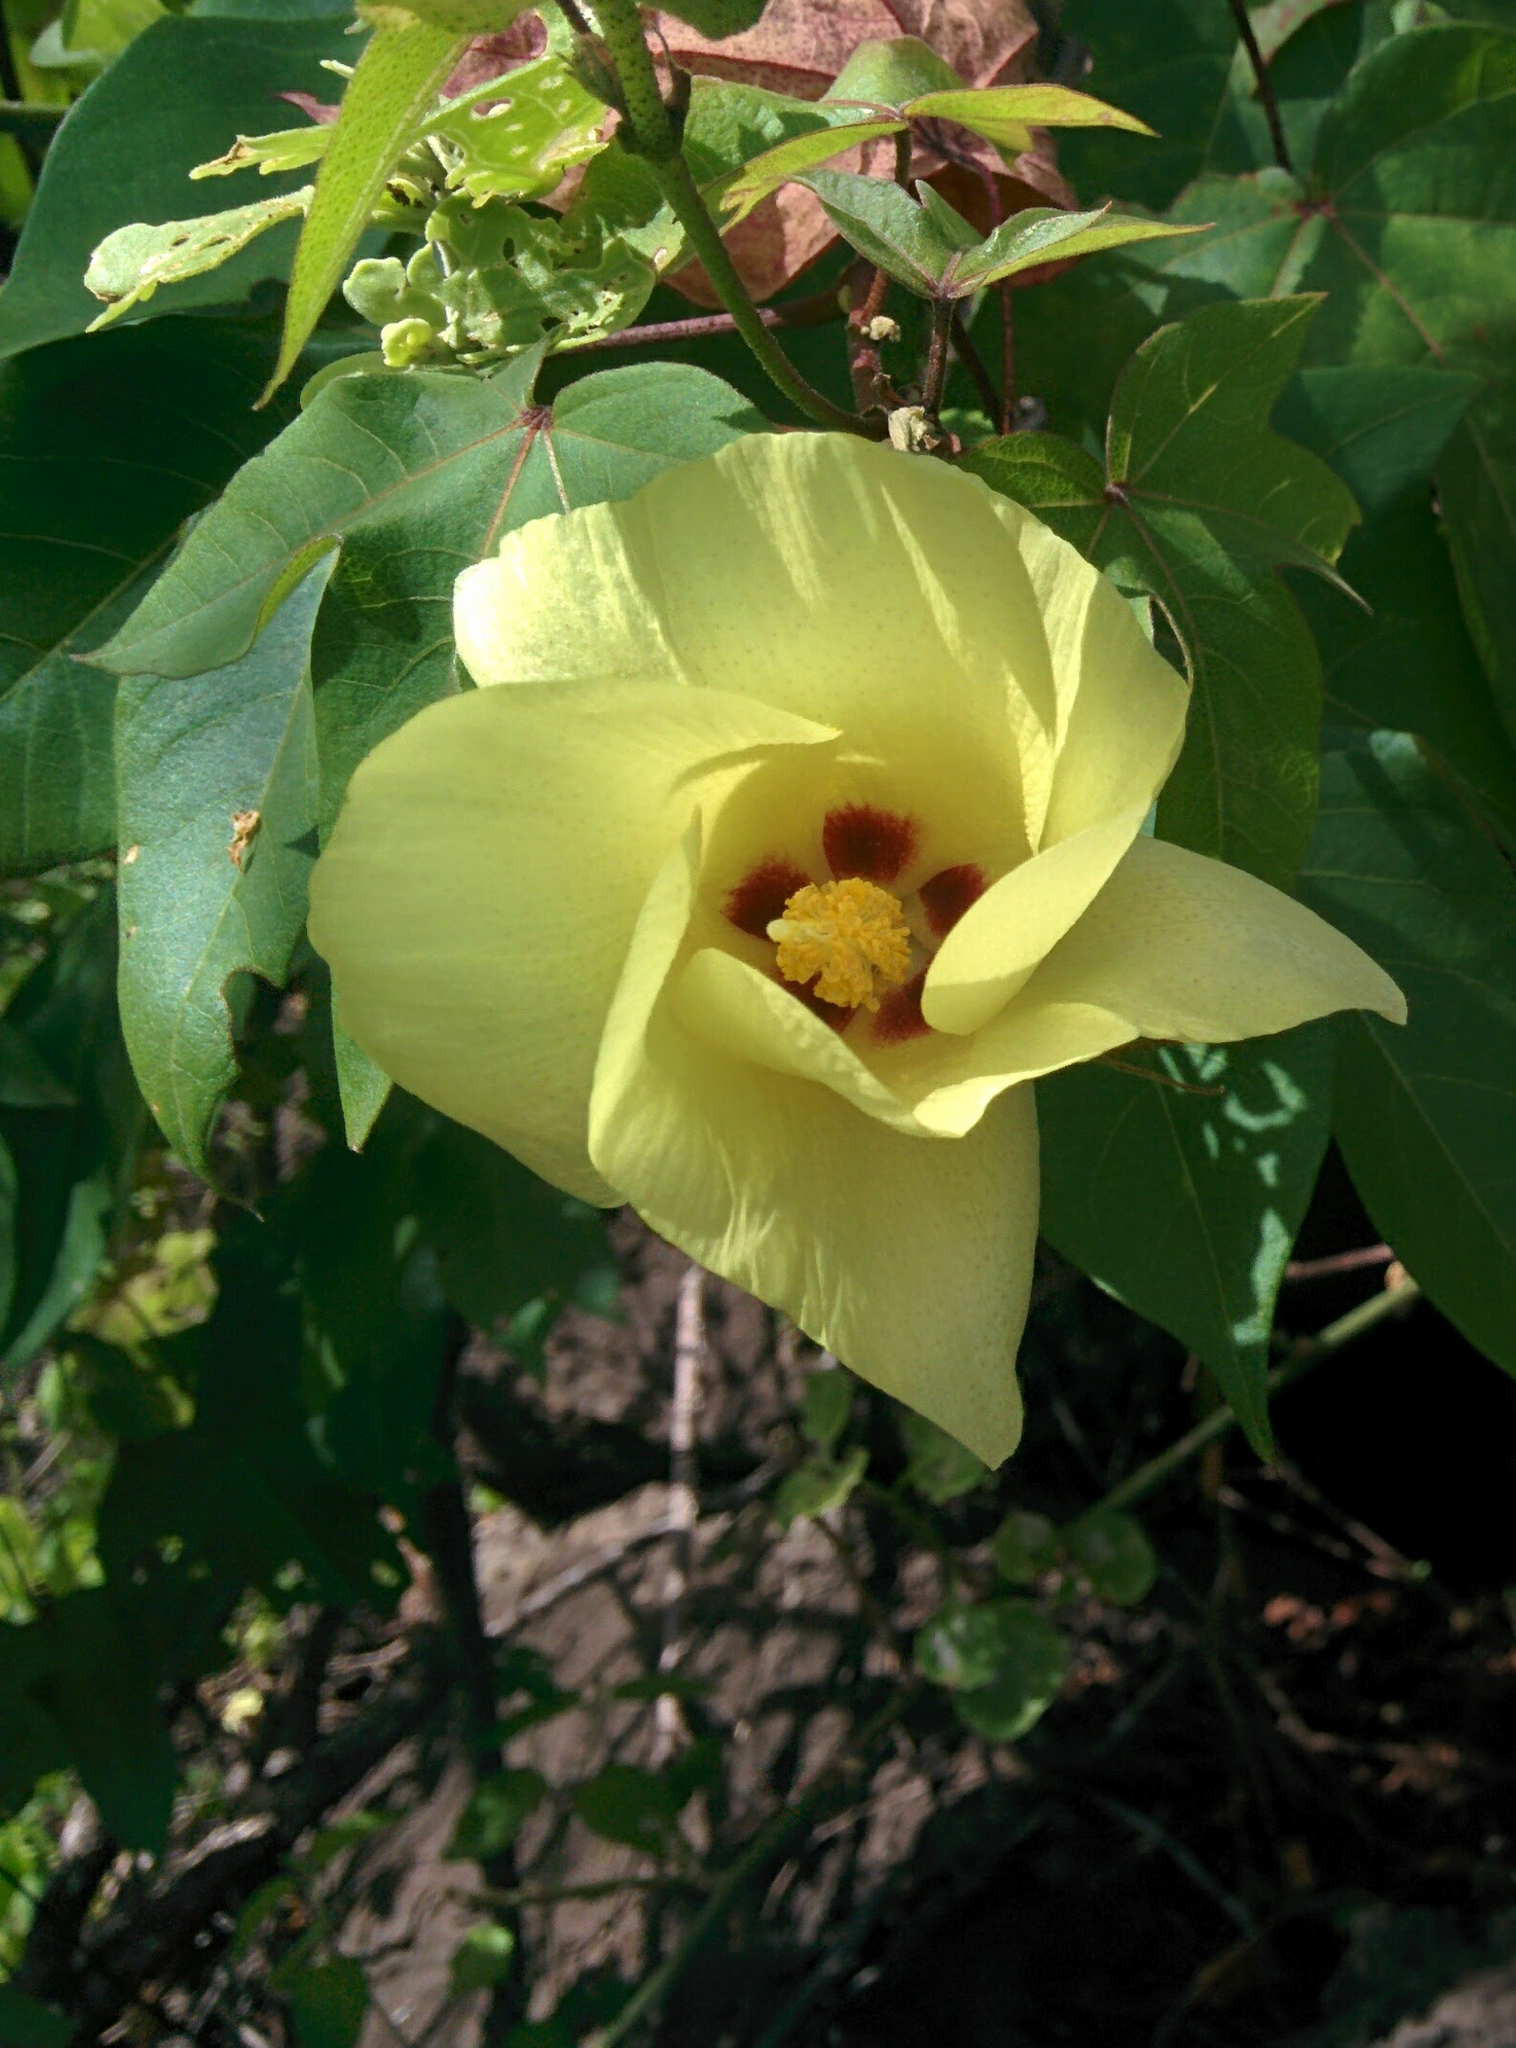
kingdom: Plantae
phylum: Tracheophyta
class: Magnoliopsida
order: Malvales
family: Malvaceae
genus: Gossypium
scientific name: Gossypium darwinii
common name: Darwin's cotton
